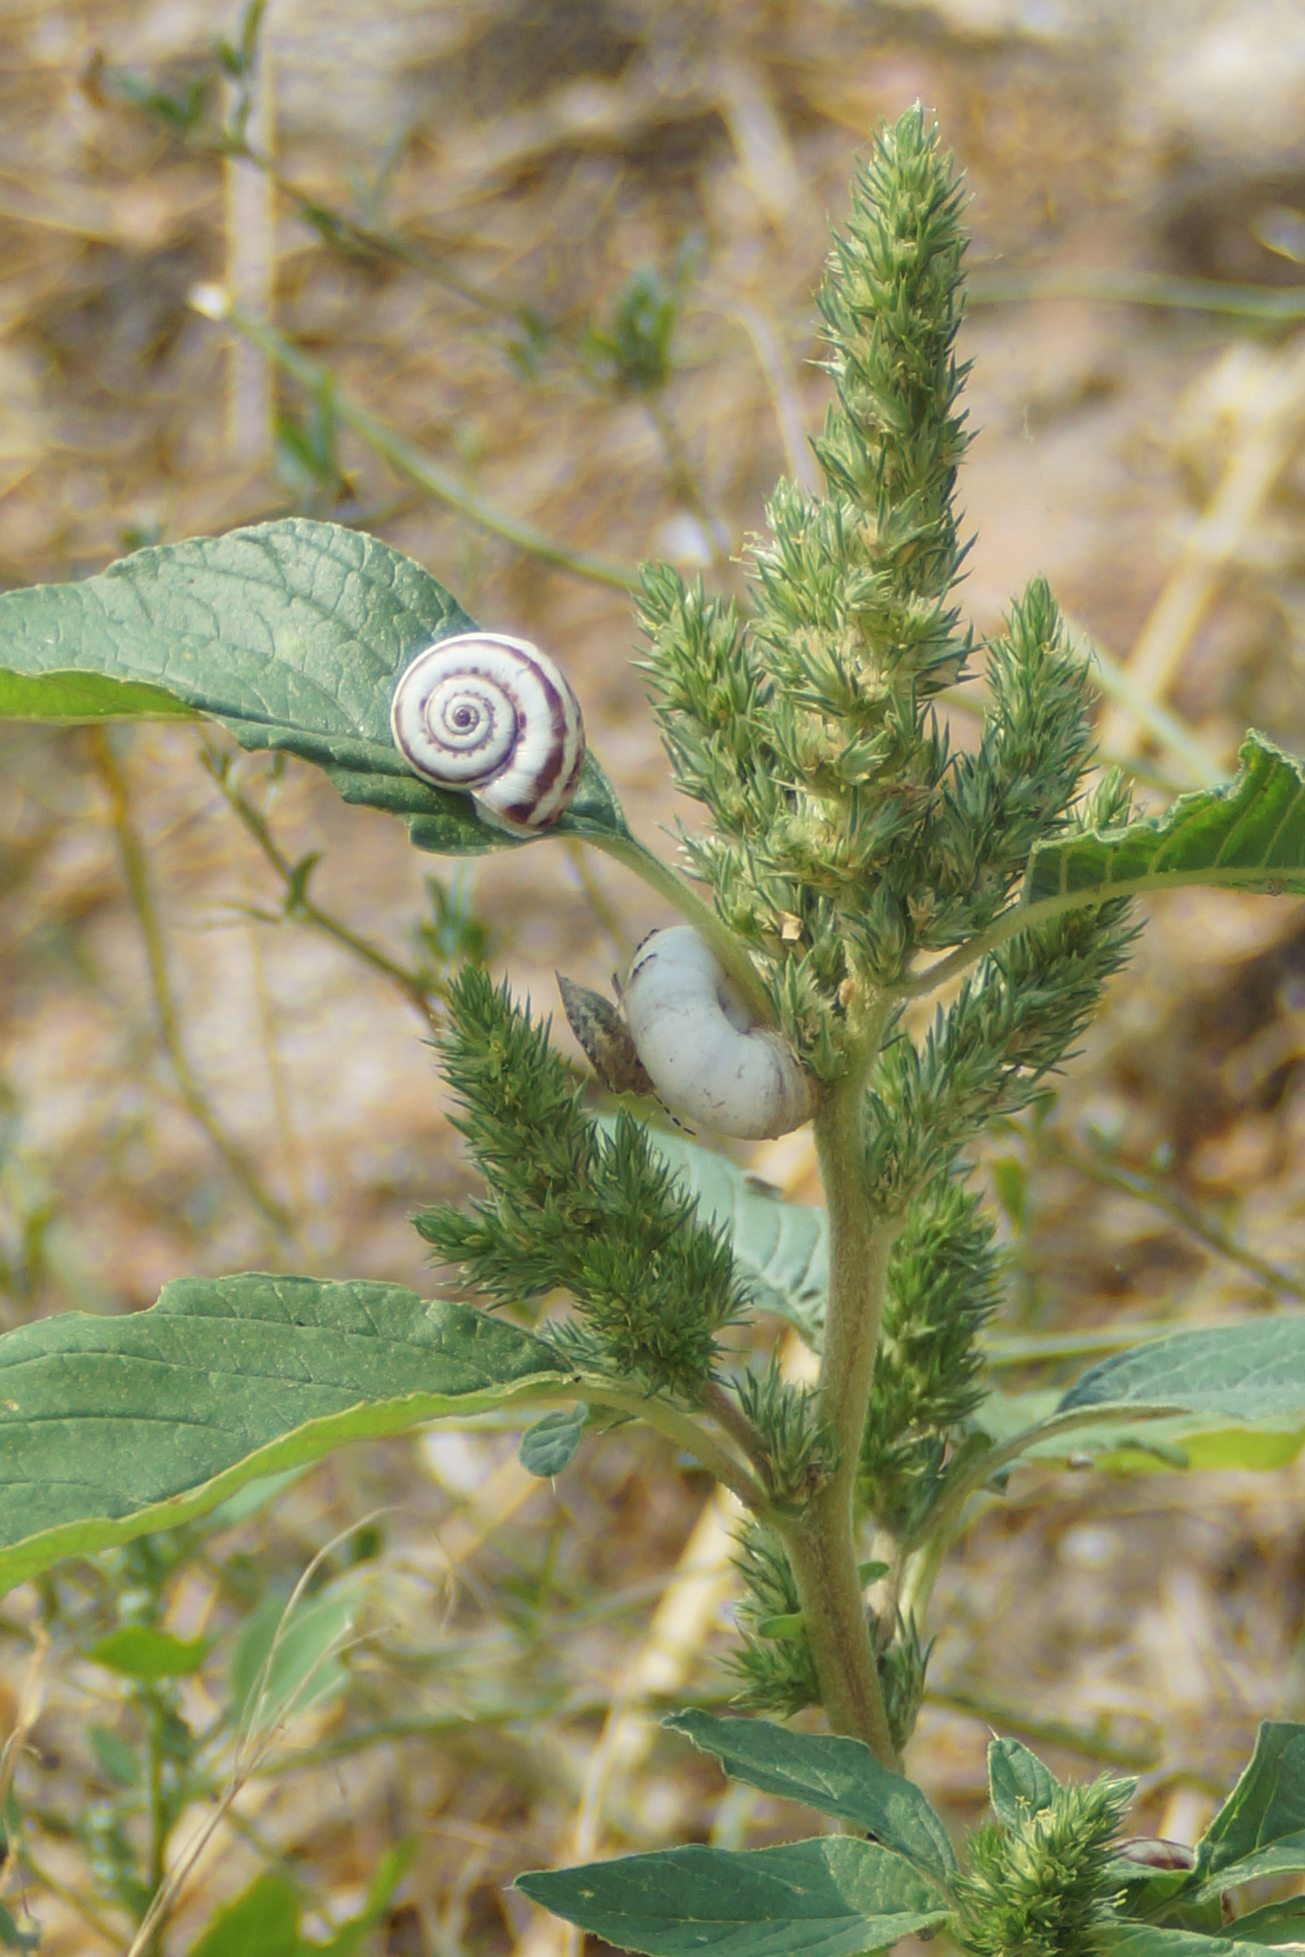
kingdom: Animalia
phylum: Mollusca
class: Gastropoda
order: Stylommatophora
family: Geomitridae
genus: Xeropicta
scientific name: Xeropicta derbentina
